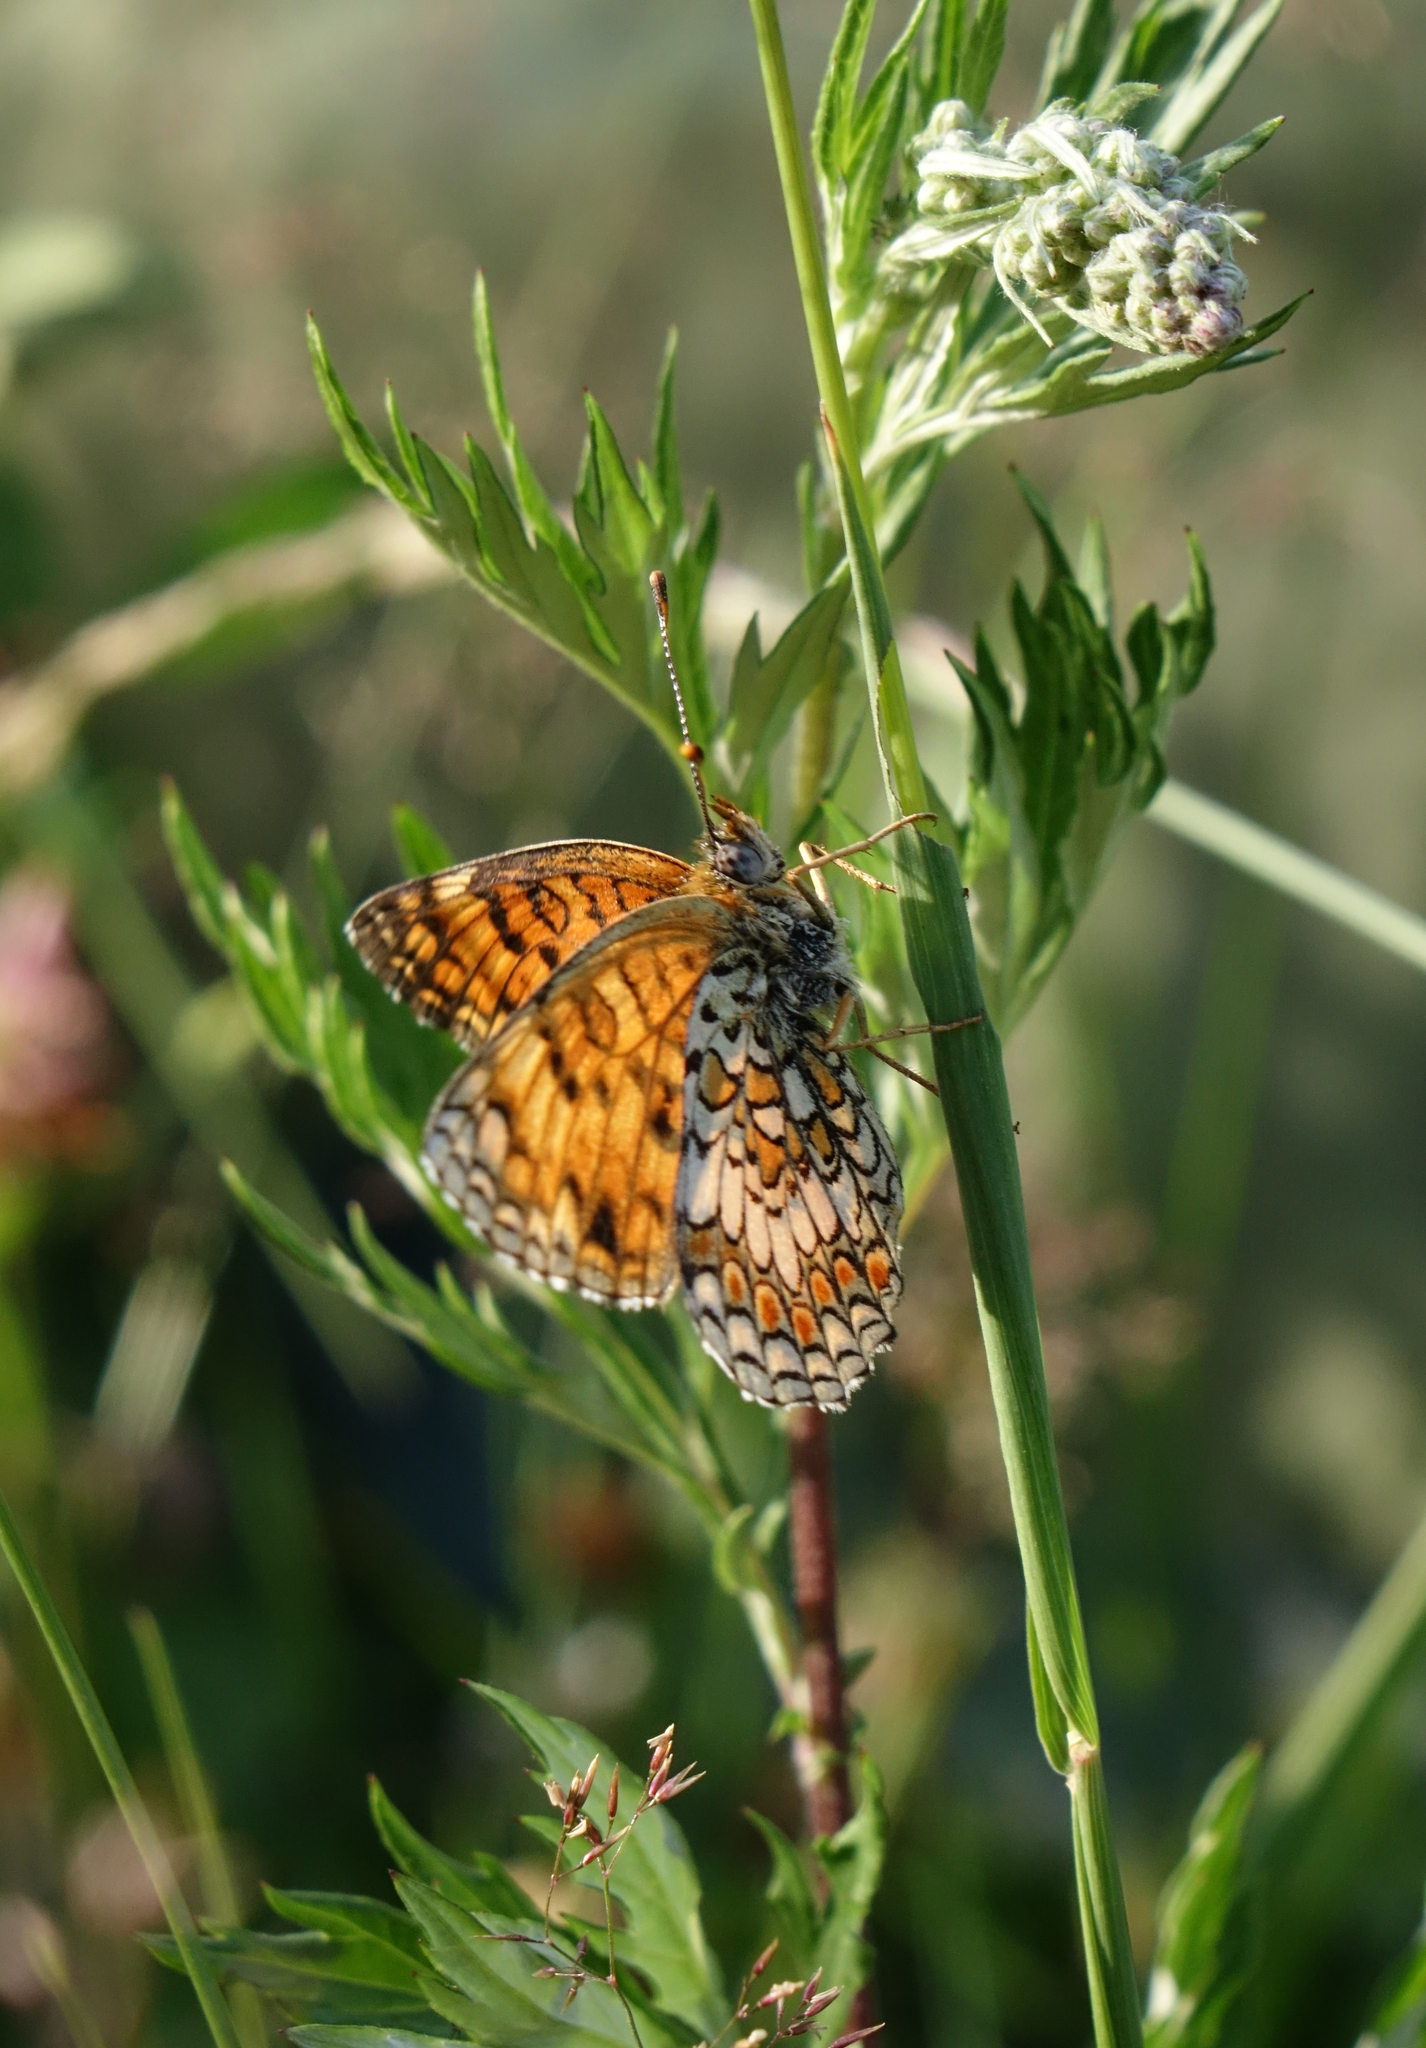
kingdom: Animalia
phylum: Arthropoda
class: Insecta
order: Lepidoptera
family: Nymphalidae
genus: Melitaea
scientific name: Melitaea phoebe
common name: Knapweed fritillary
